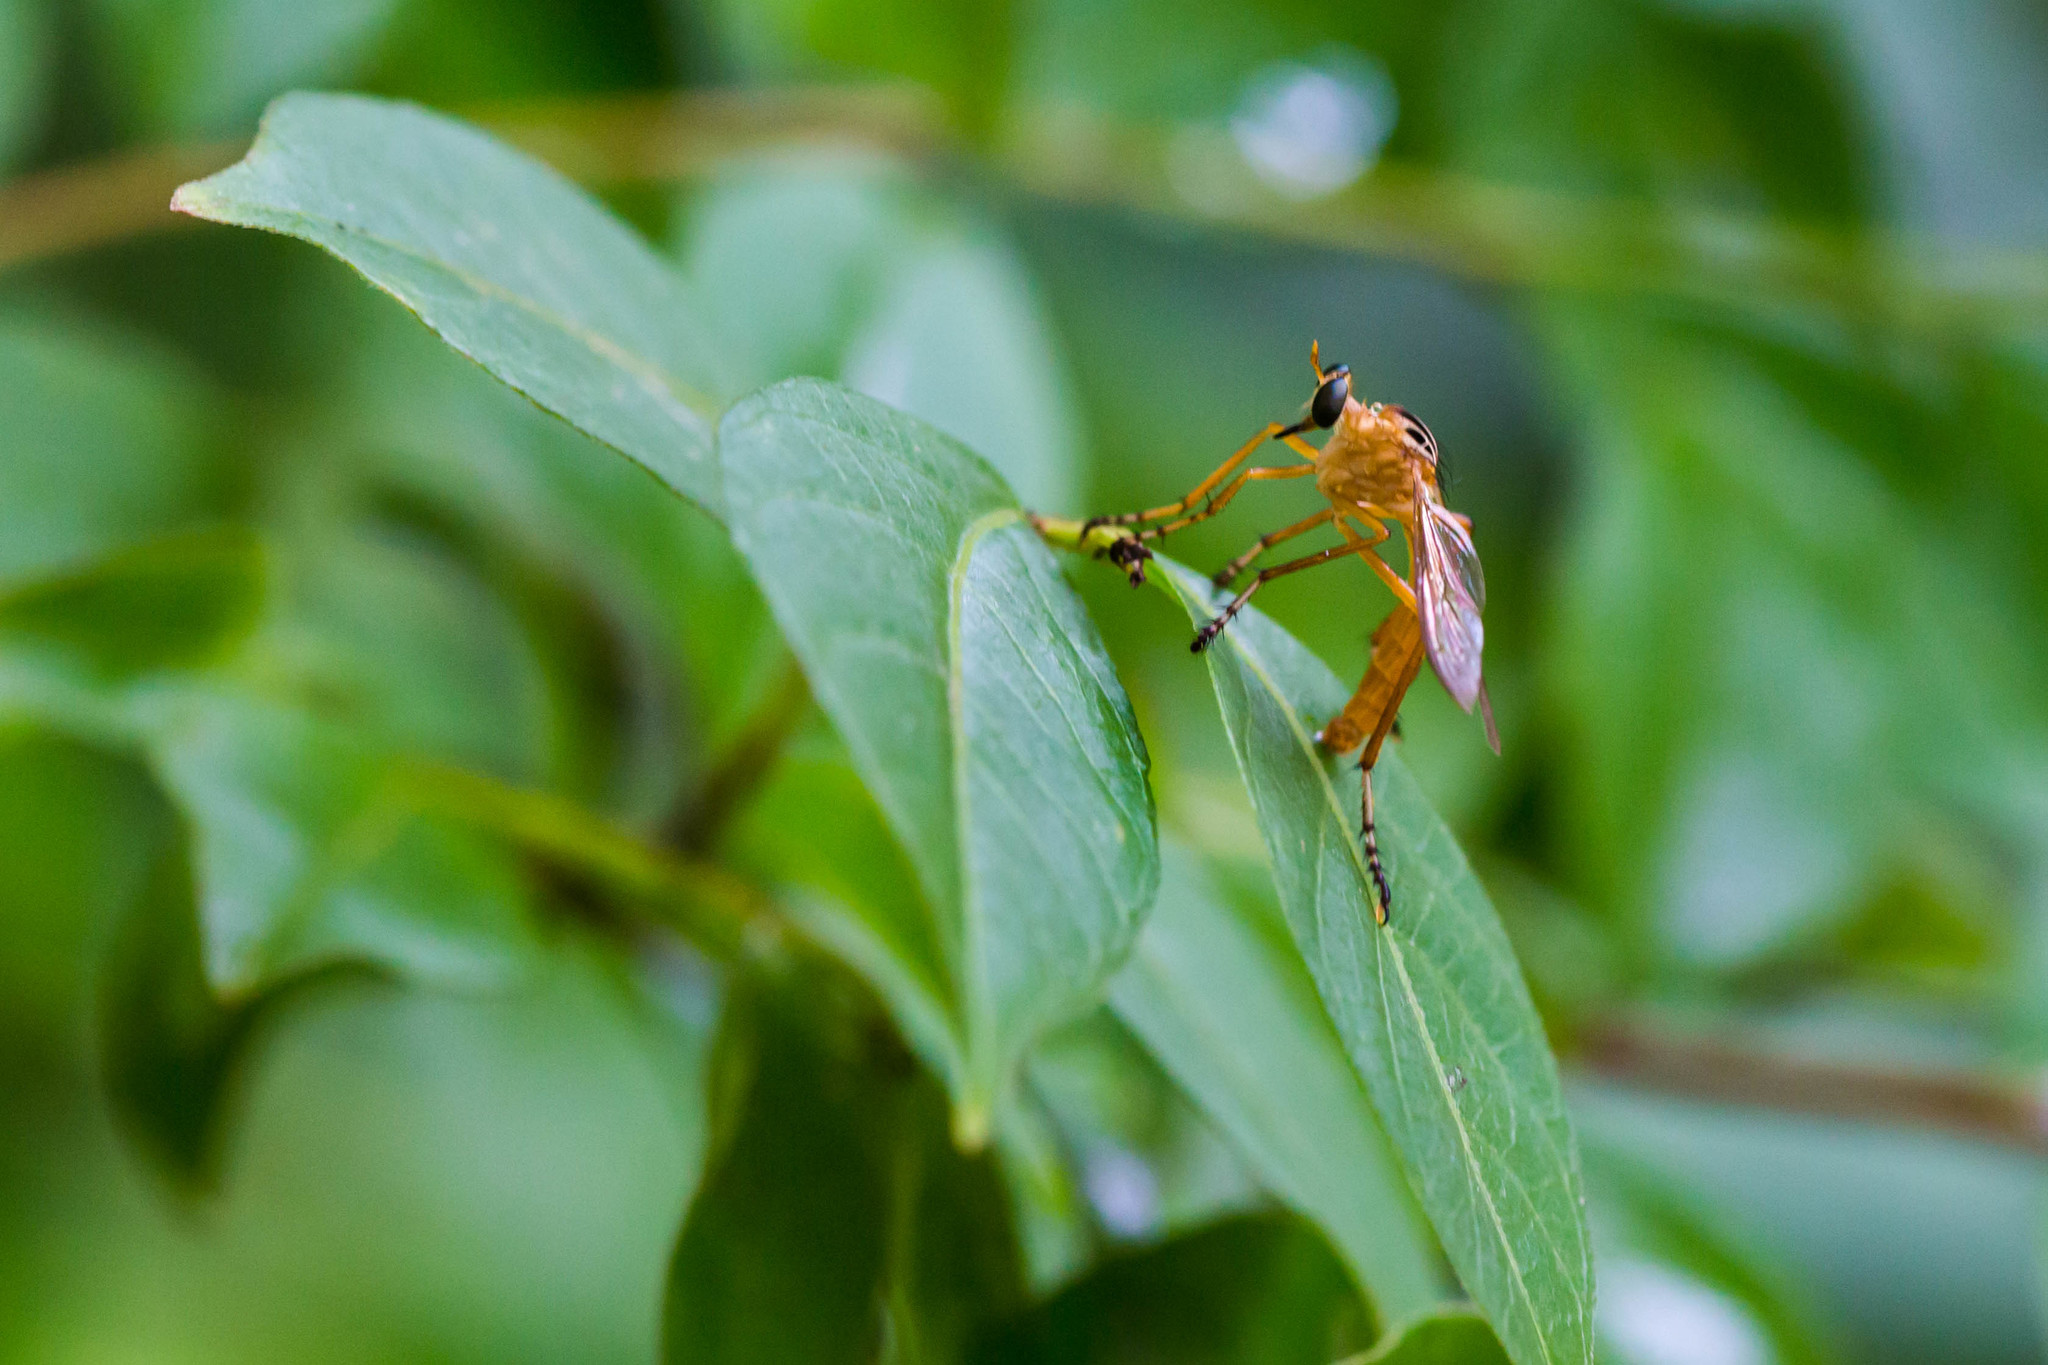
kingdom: Animalia
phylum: Arthropoda
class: Insecta
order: Diptera
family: Asilidae
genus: Diogmites
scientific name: Diogmites neoternatus
